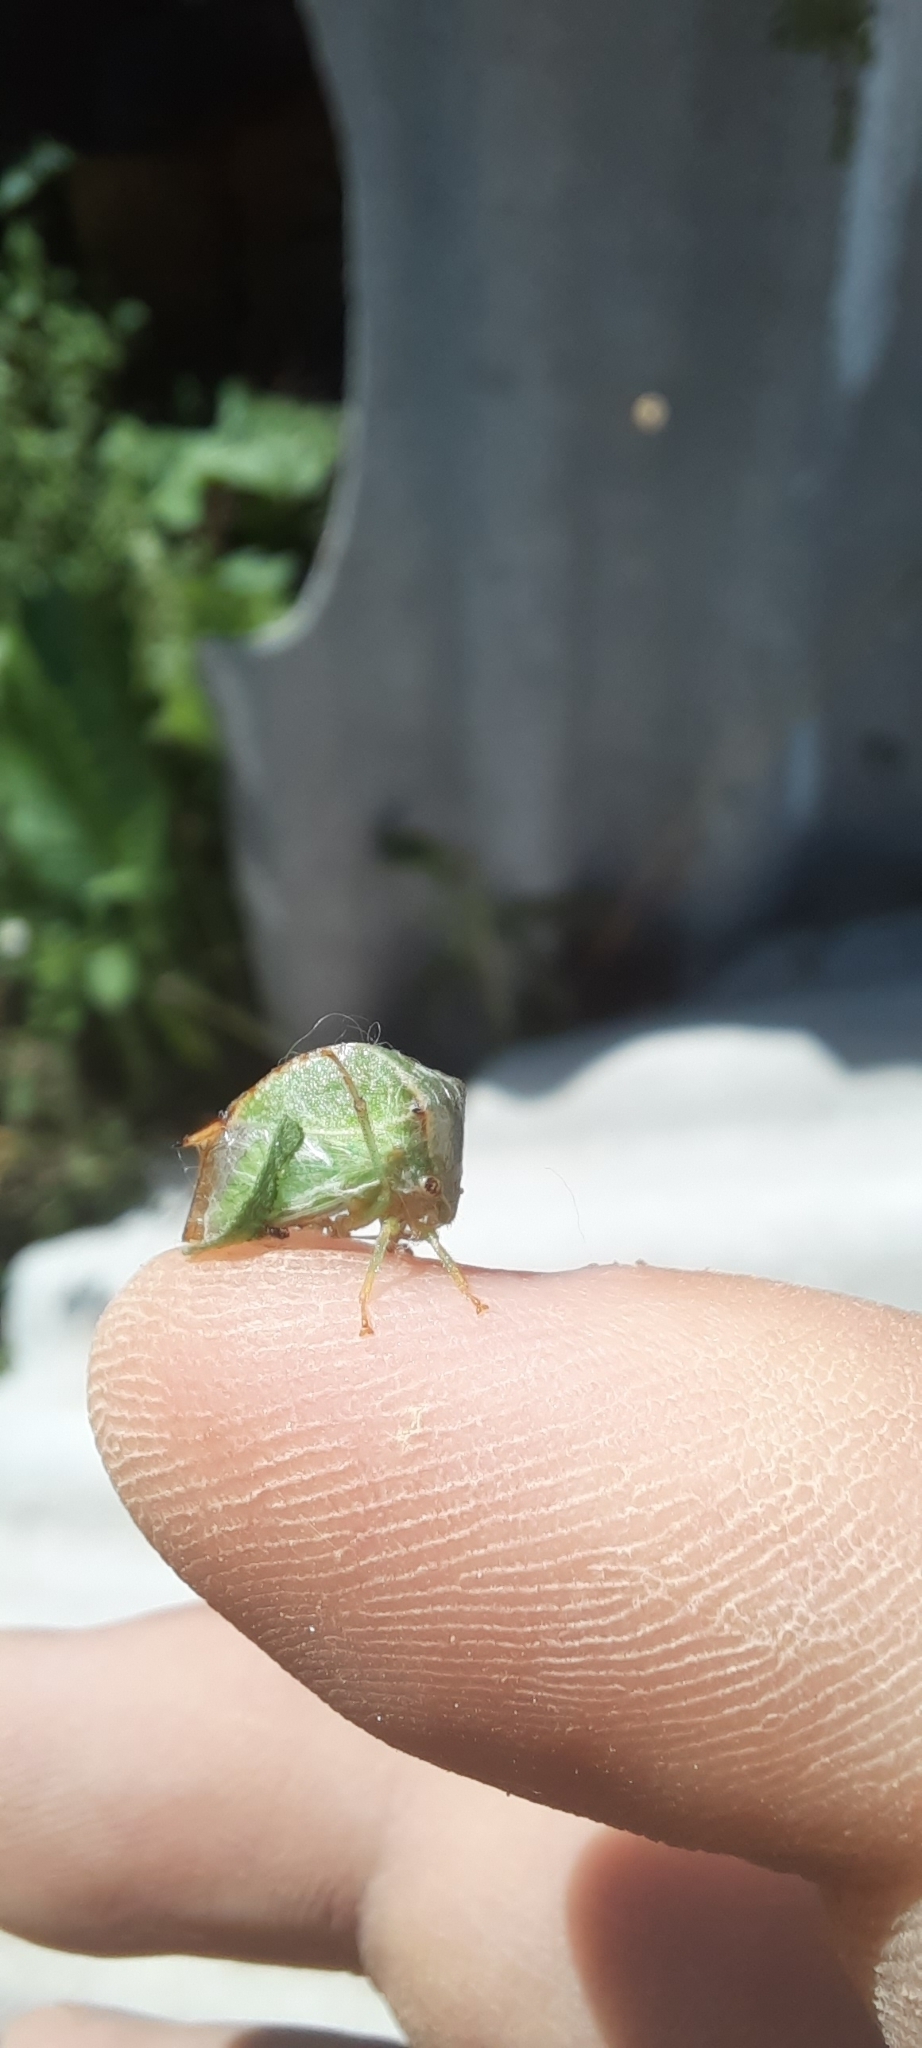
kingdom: Animalia
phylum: Arthropoda
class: Insecta
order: Hemiptera
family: Membracidae
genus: Stictocephala
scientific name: Stictocephala bisonia
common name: American buffalo treehopper
